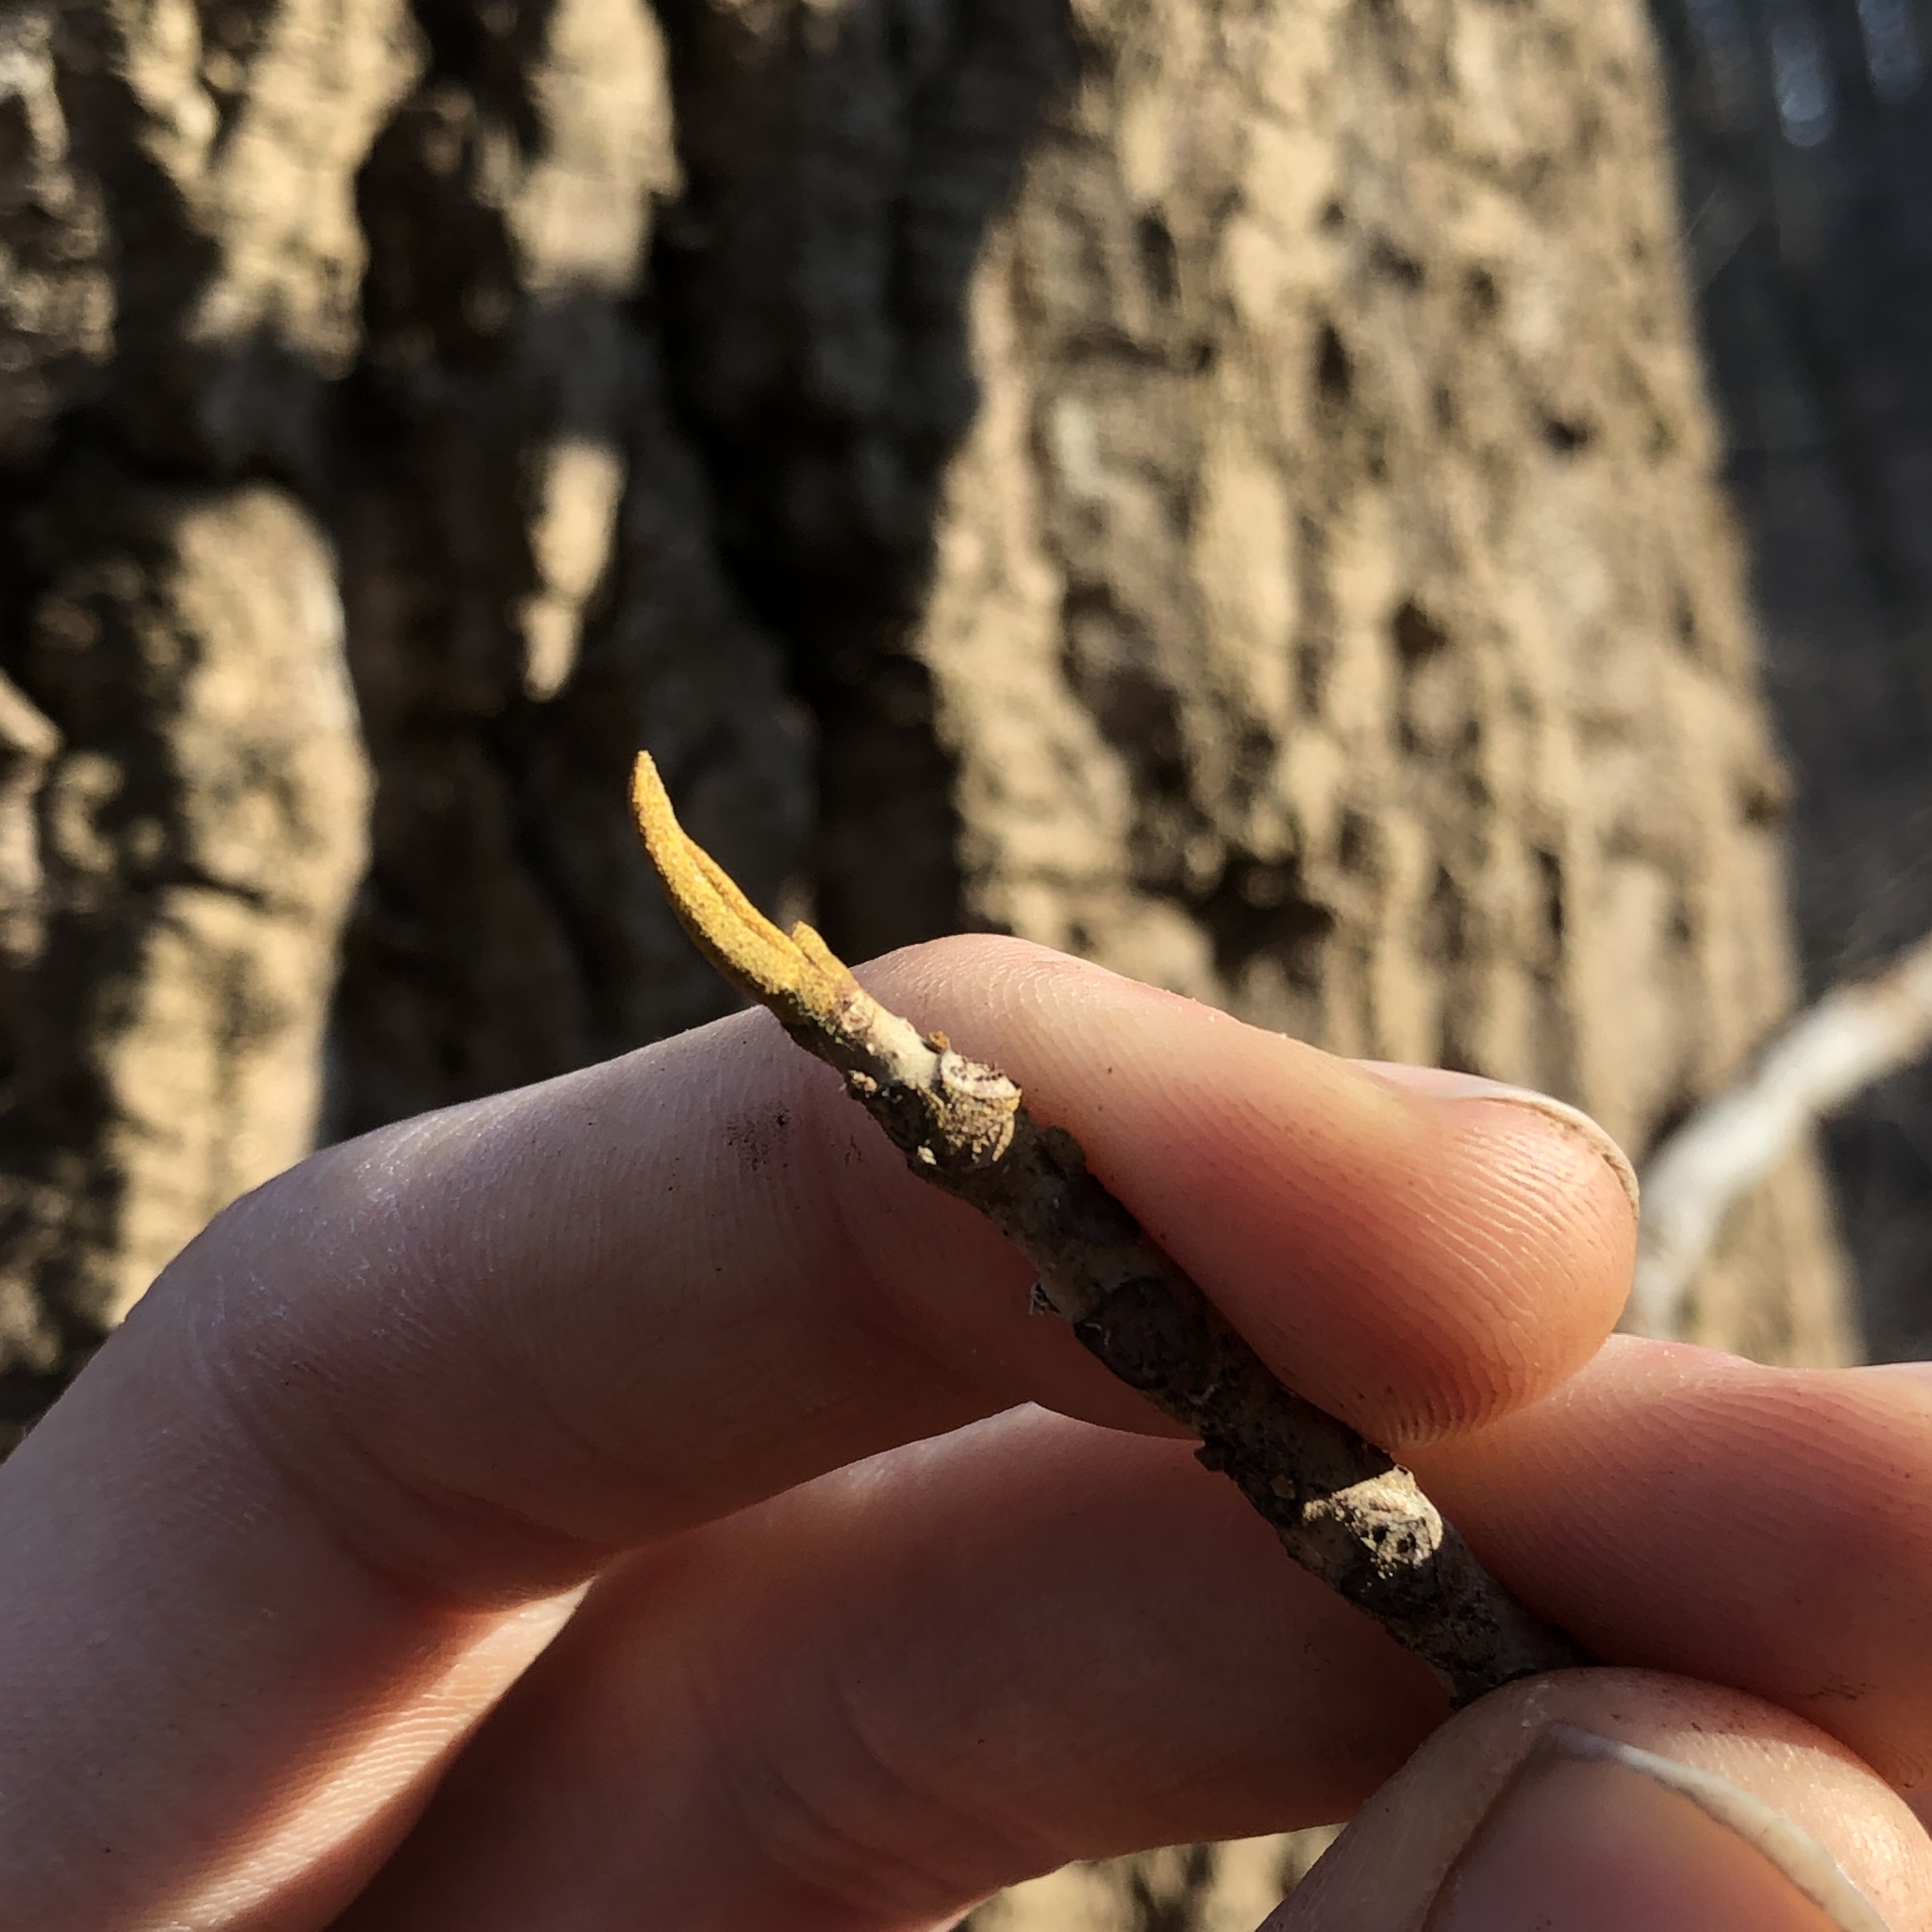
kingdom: Plantae
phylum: Tracheophyta
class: Magnoliopsida
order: Fagales
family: Juglandaceae
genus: Carya
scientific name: Carya cordiformis
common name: Bitternut hickory
